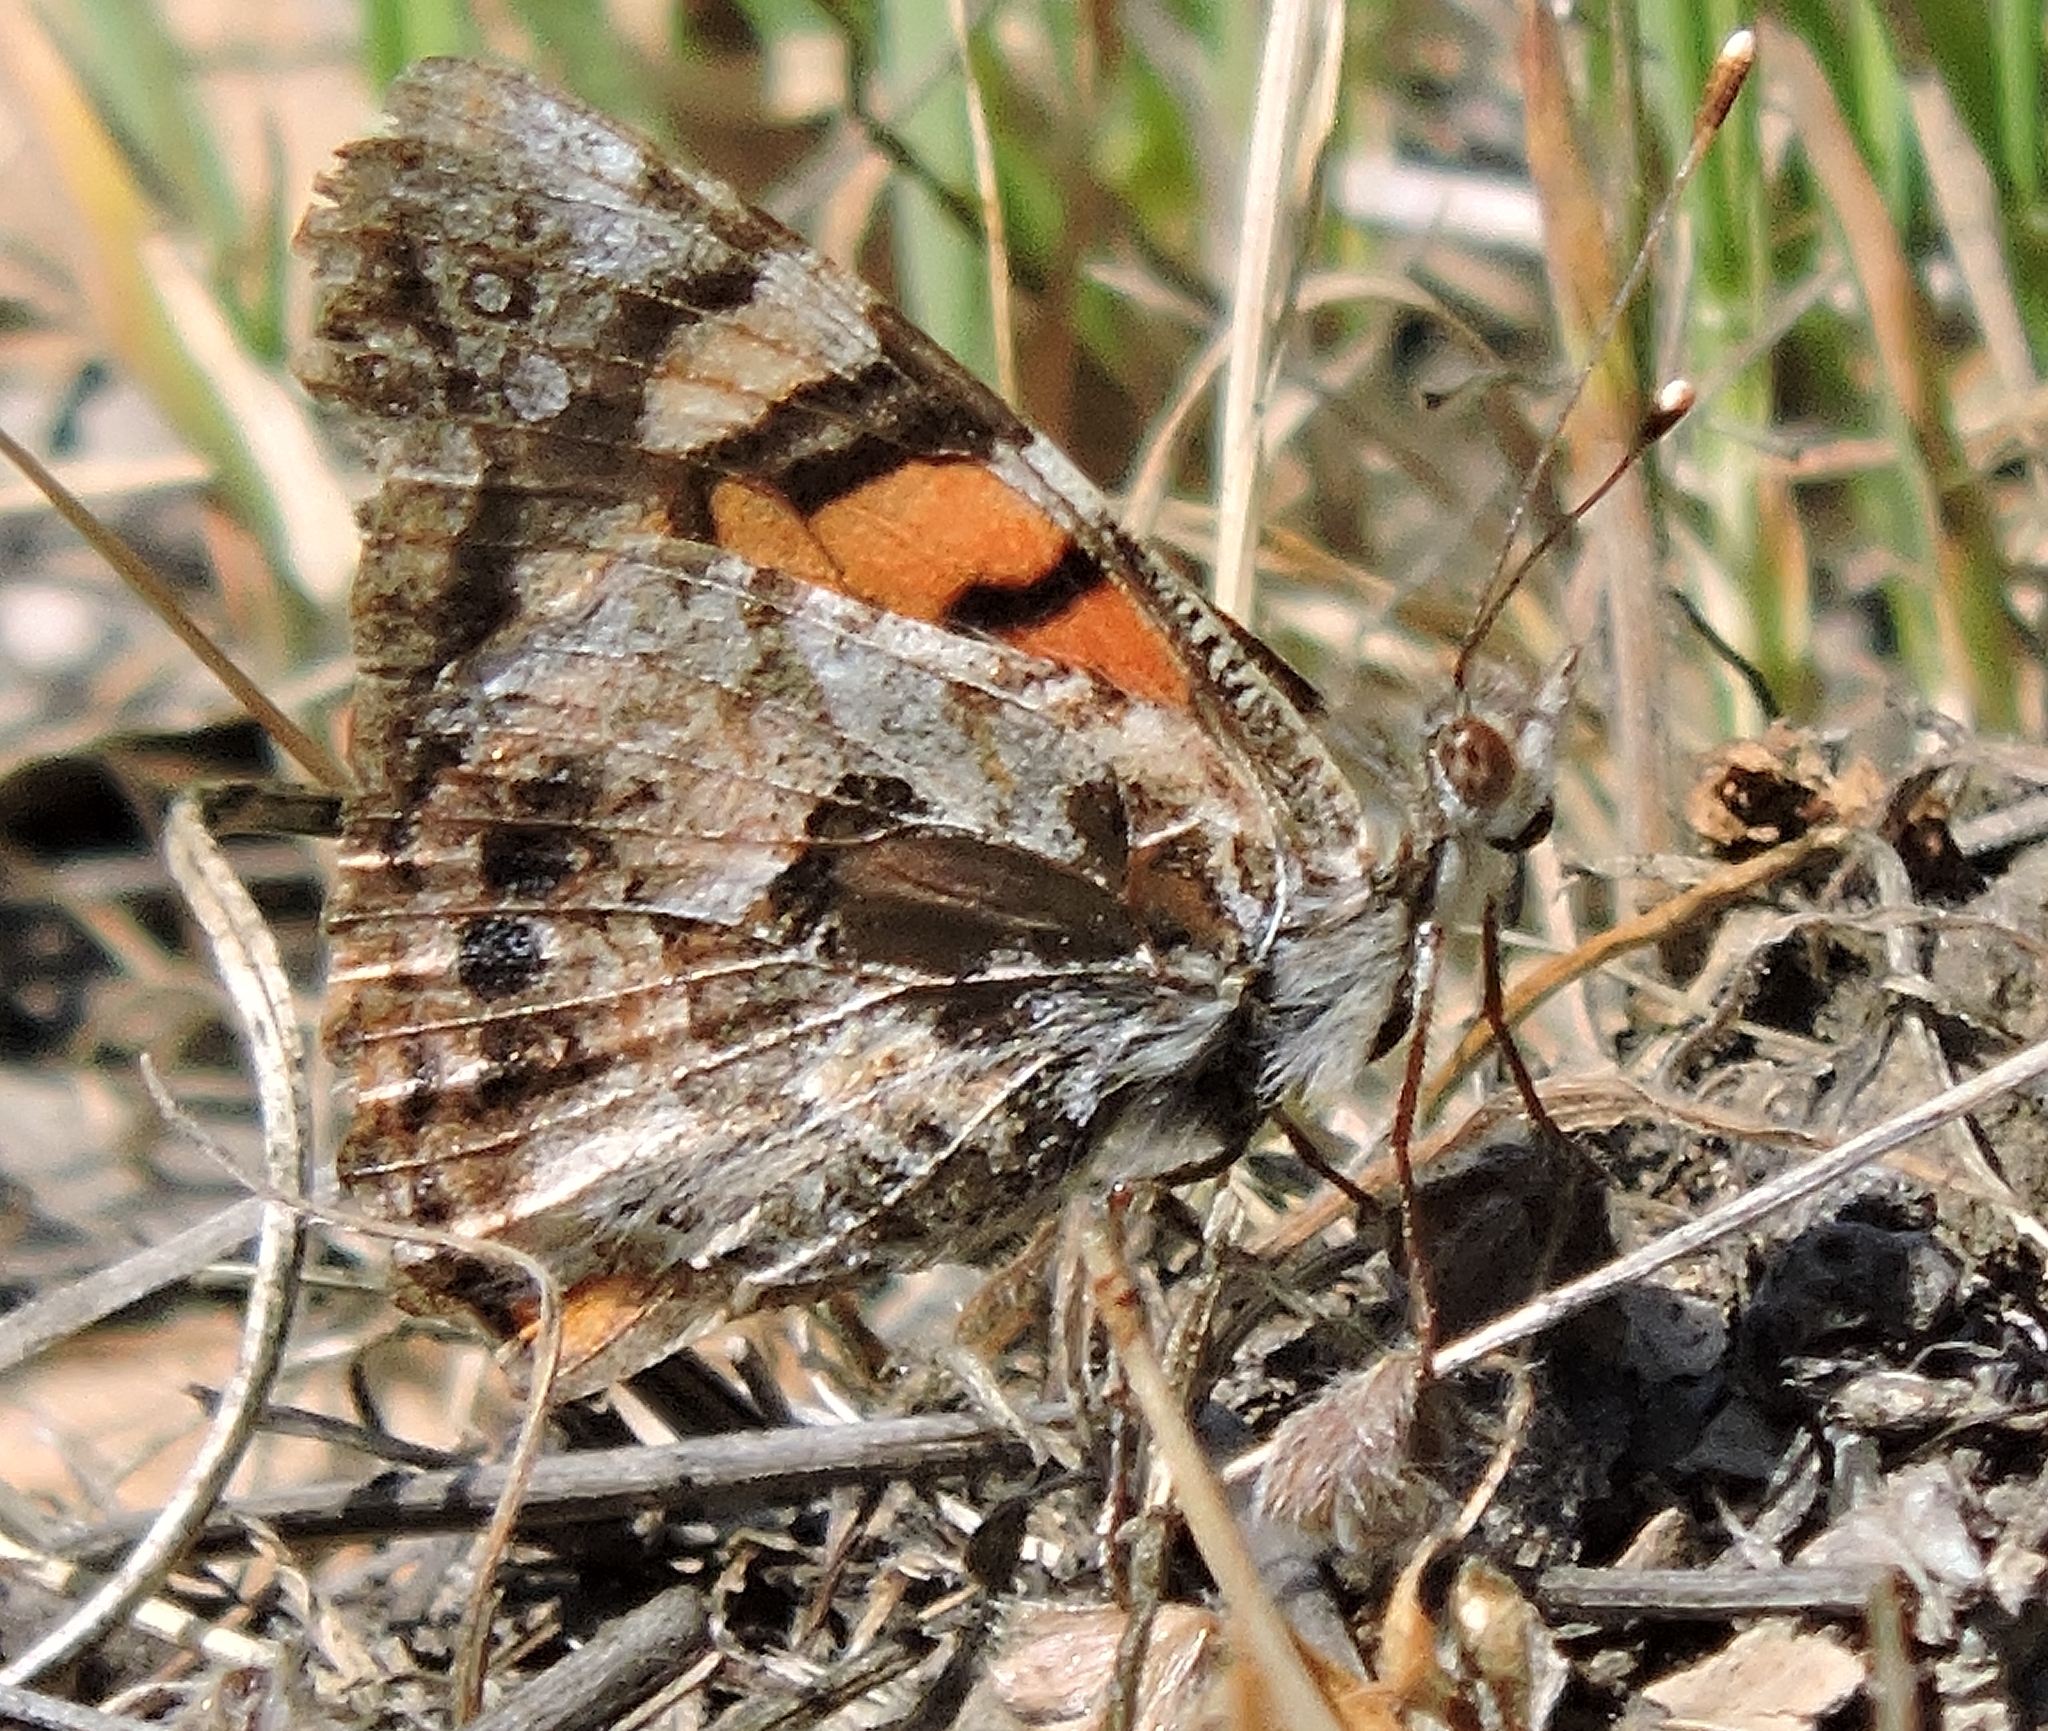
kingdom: Animalia
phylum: Arthropoda
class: Insecta
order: Lepidoptera
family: Nymphalidae
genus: Vanessa
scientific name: Vanessa annabella
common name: West coast lady
